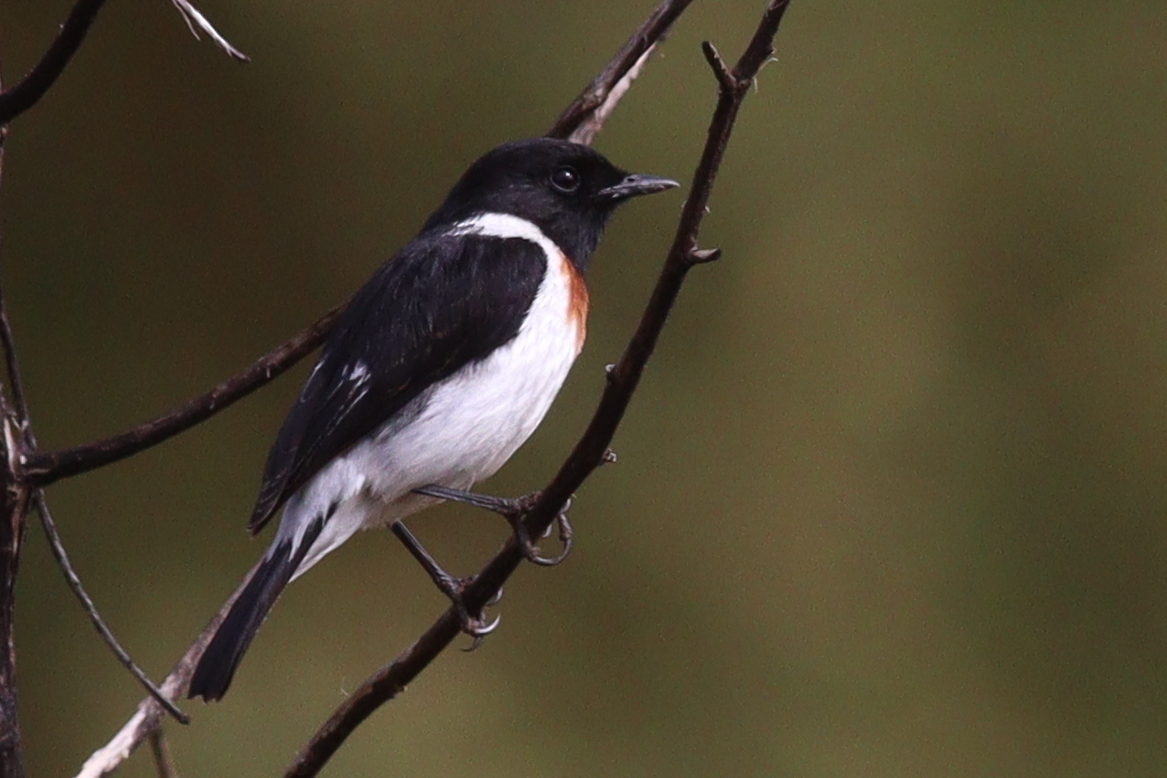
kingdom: Animalia
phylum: Chordata
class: Aves
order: Passeriformes
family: Muscicapidae
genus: Saxicola
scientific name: Saxicola torquatus
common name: African stonechat
